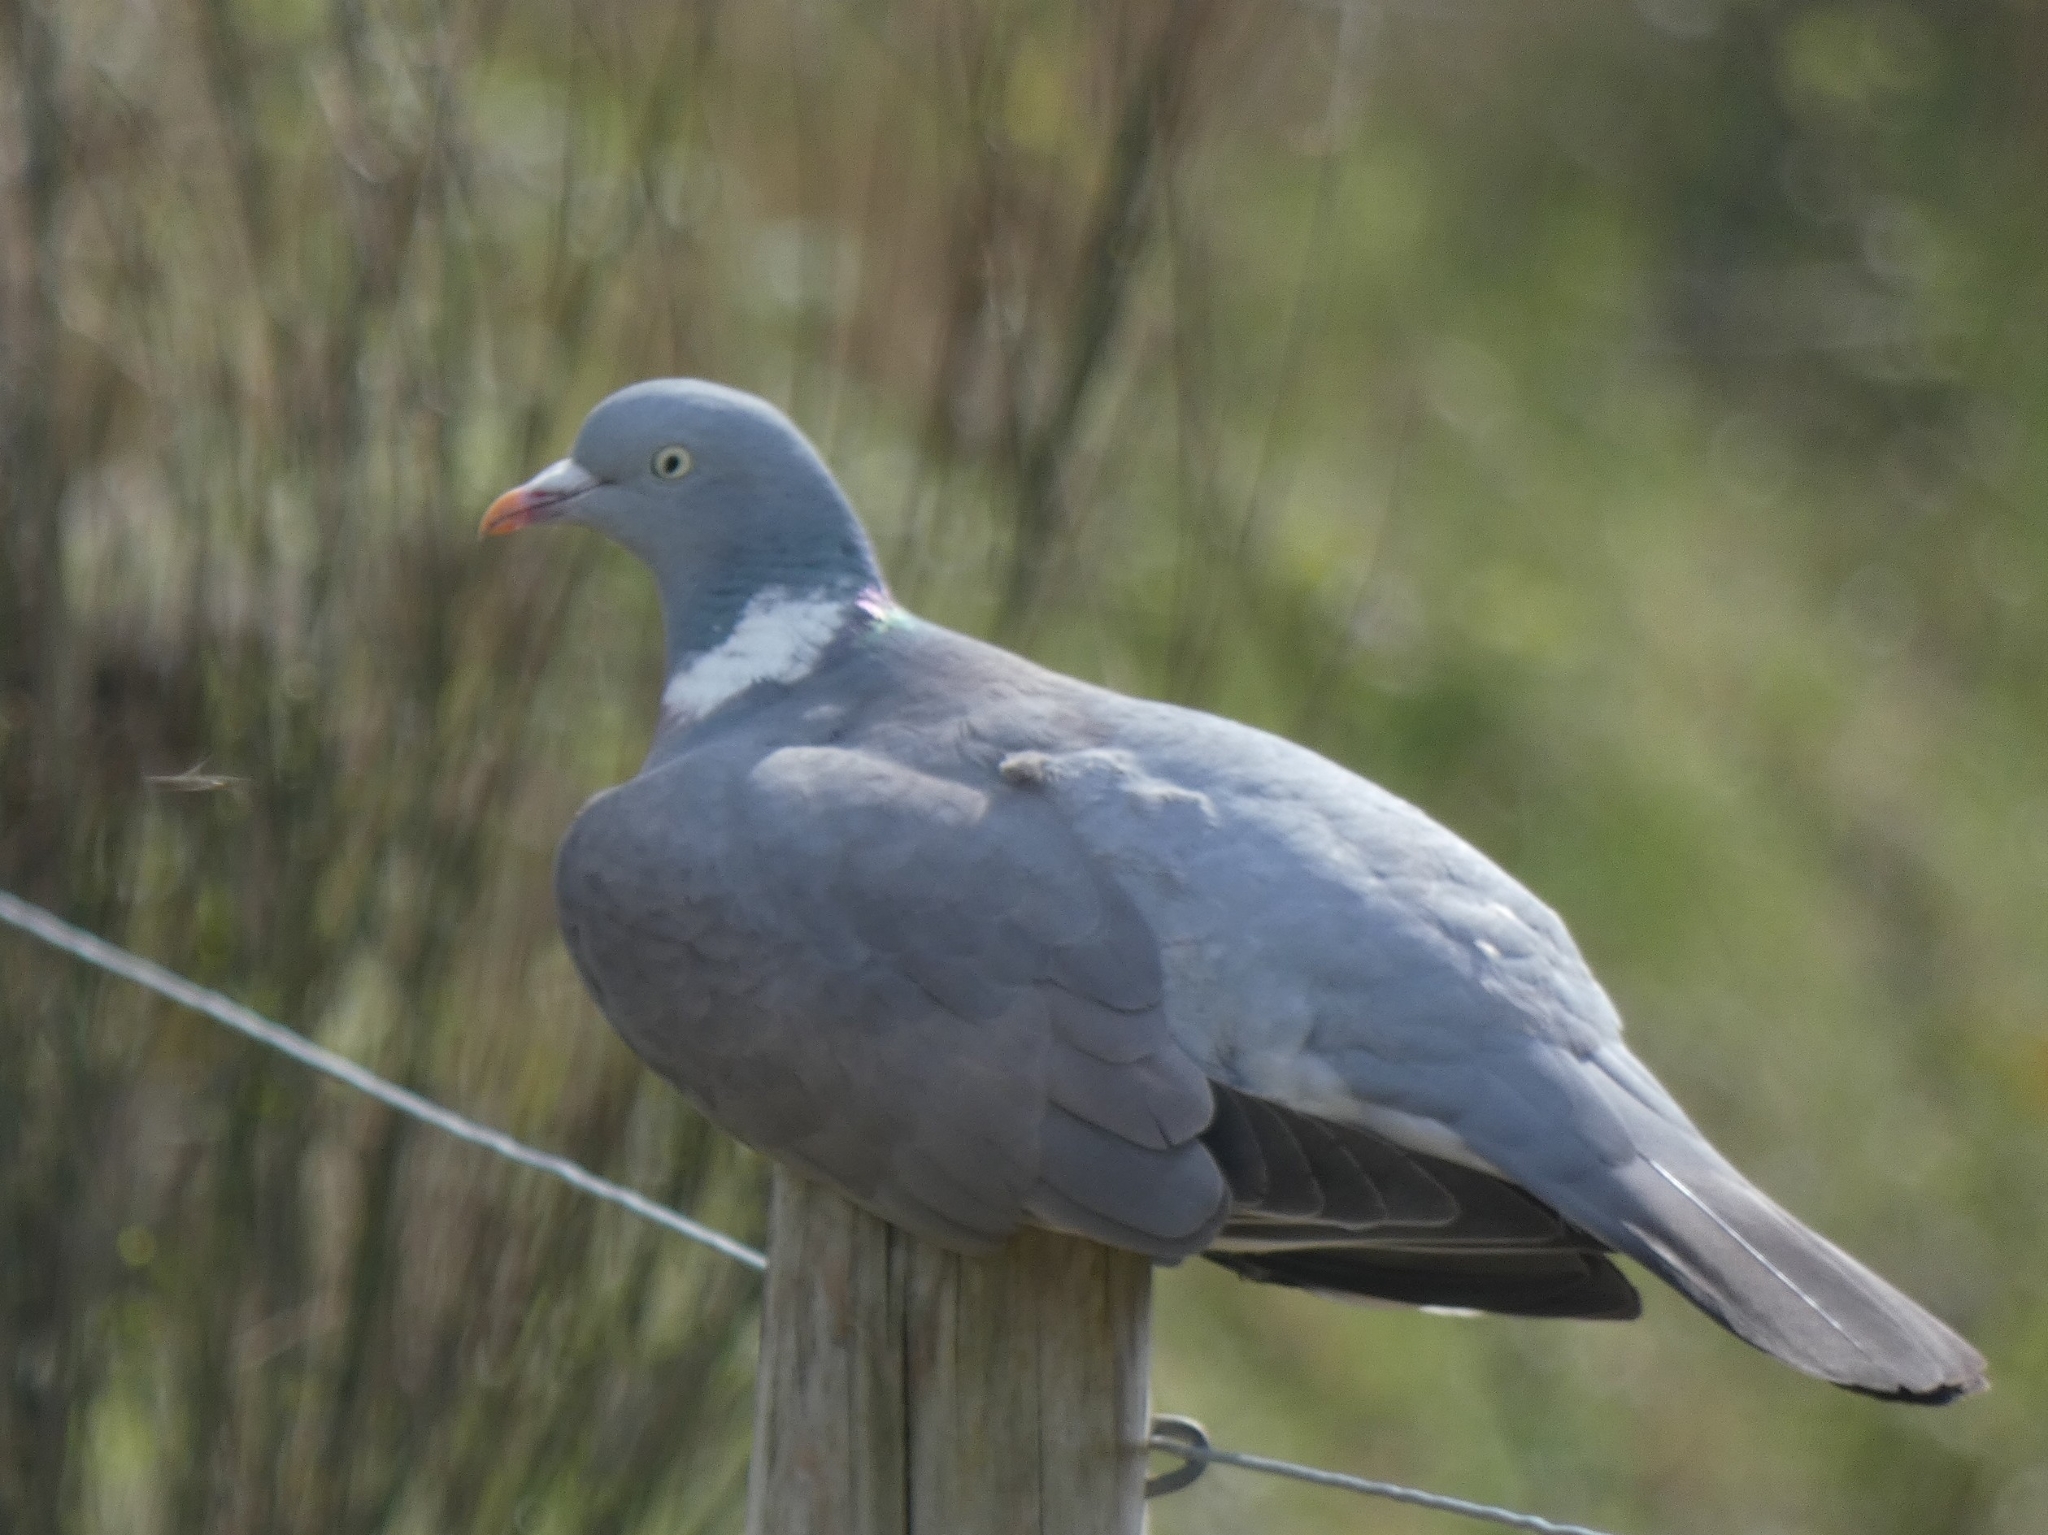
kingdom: Animalia
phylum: Chordata
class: Aves
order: Columbiformes
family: Columbidae
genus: Columba
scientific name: Columba palumbus
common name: Common wood pigeon
